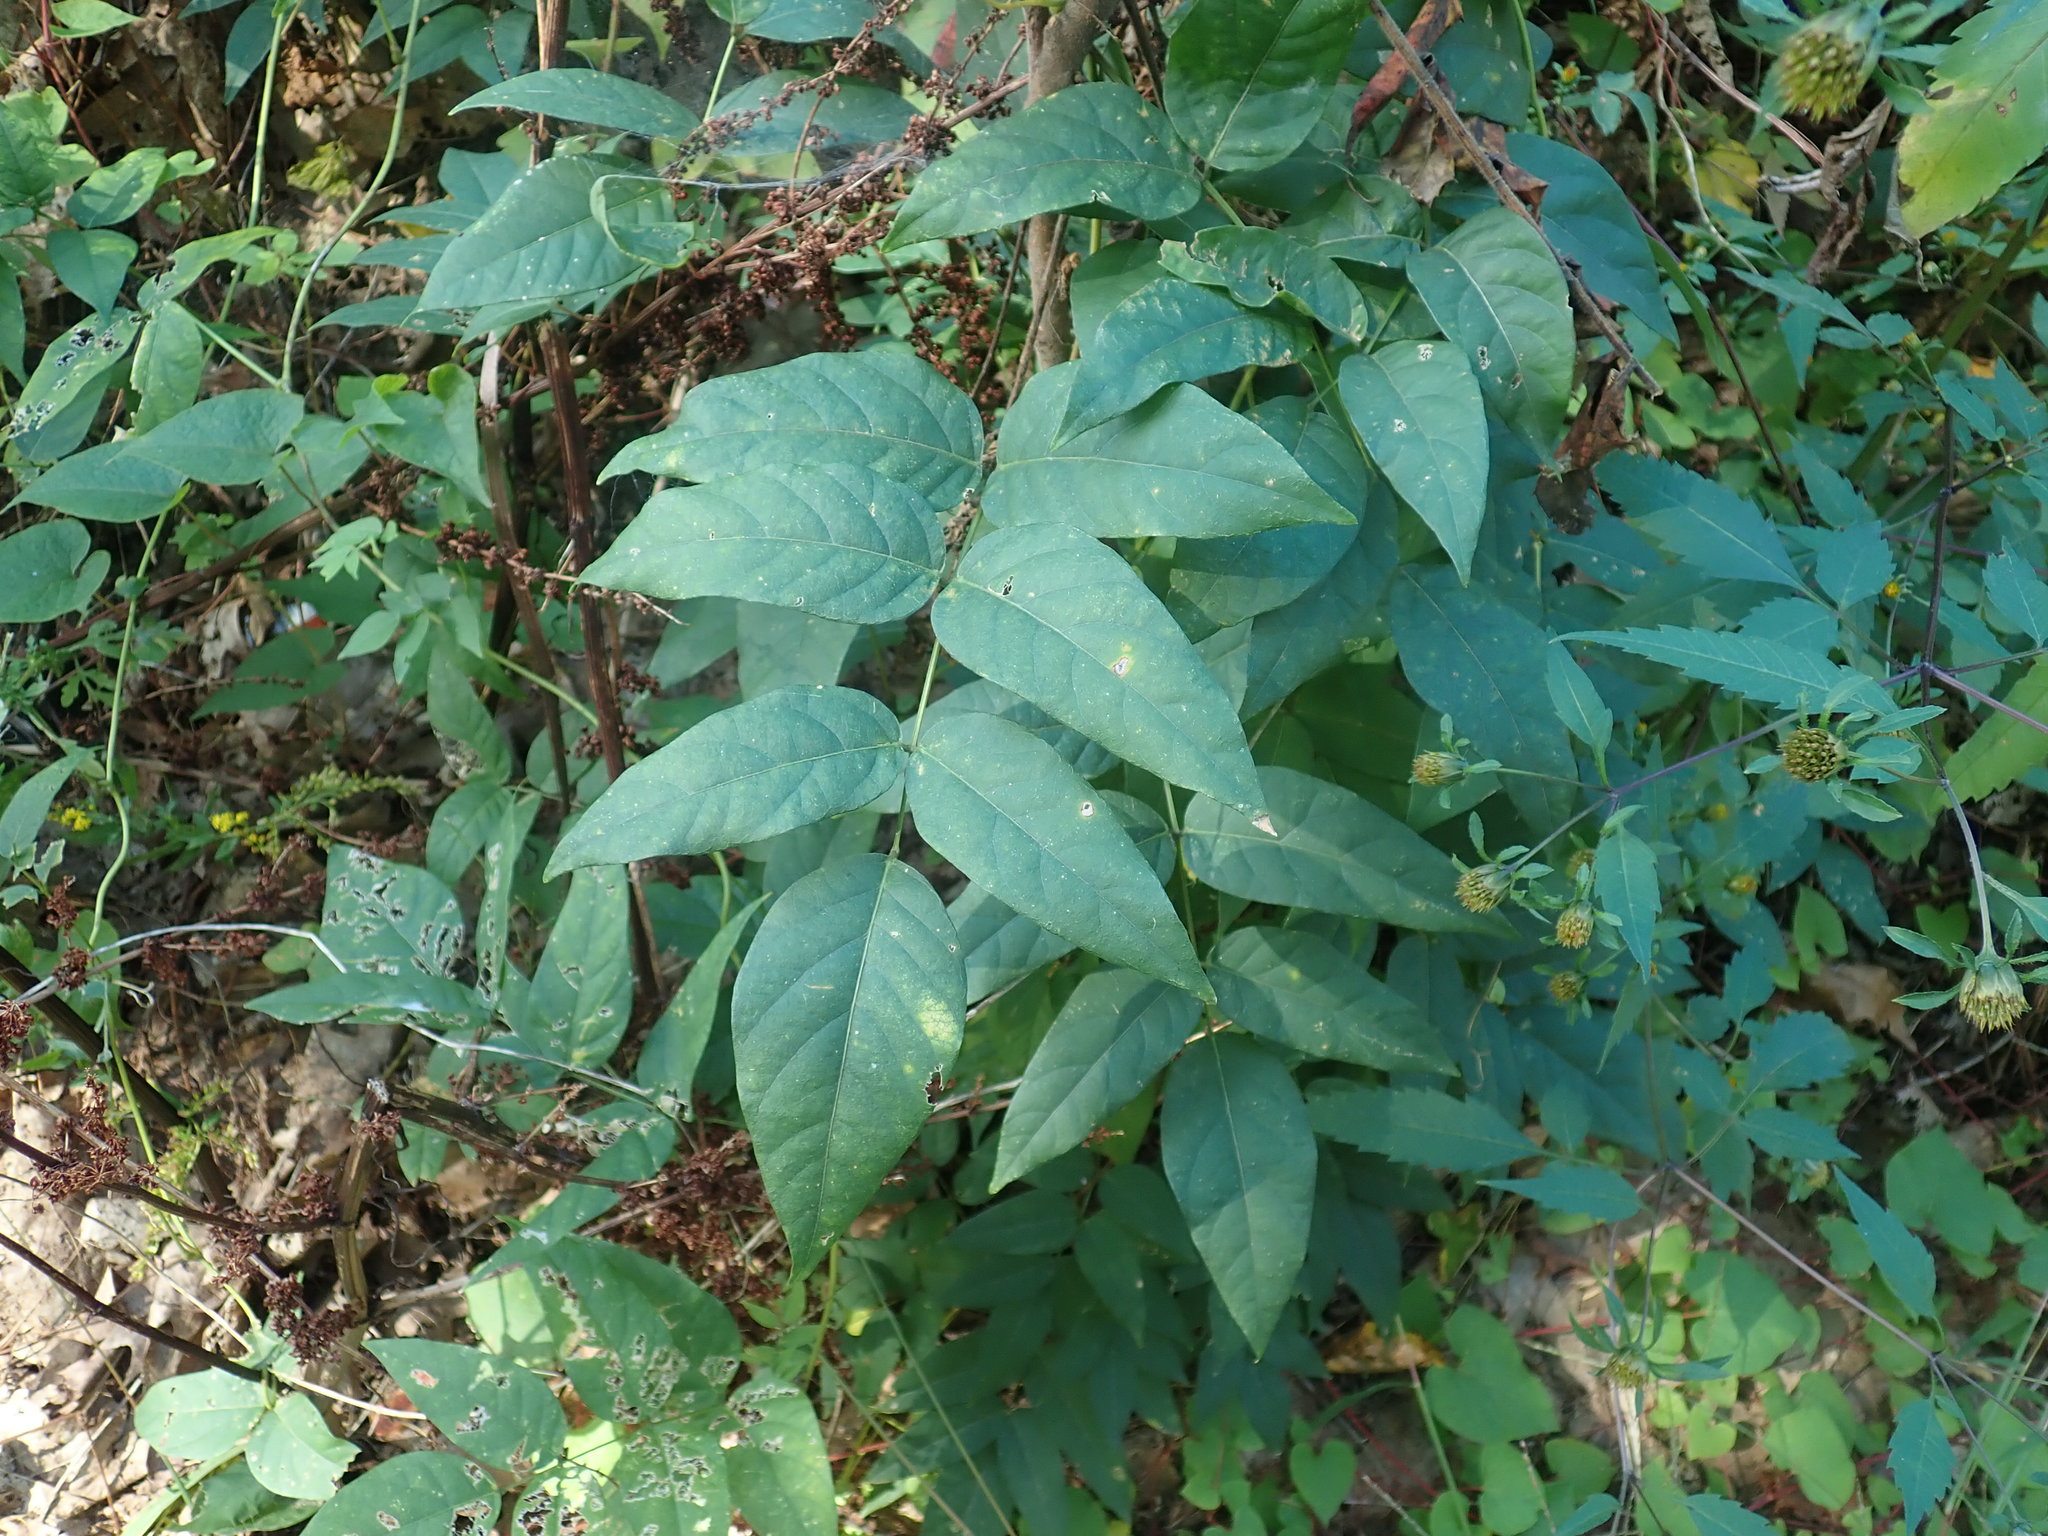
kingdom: Plantae
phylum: Tracheophyta
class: Magnoliopsida
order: Fabales
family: Fabaceae
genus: Apios
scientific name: Apios americana
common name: American potato-bean
